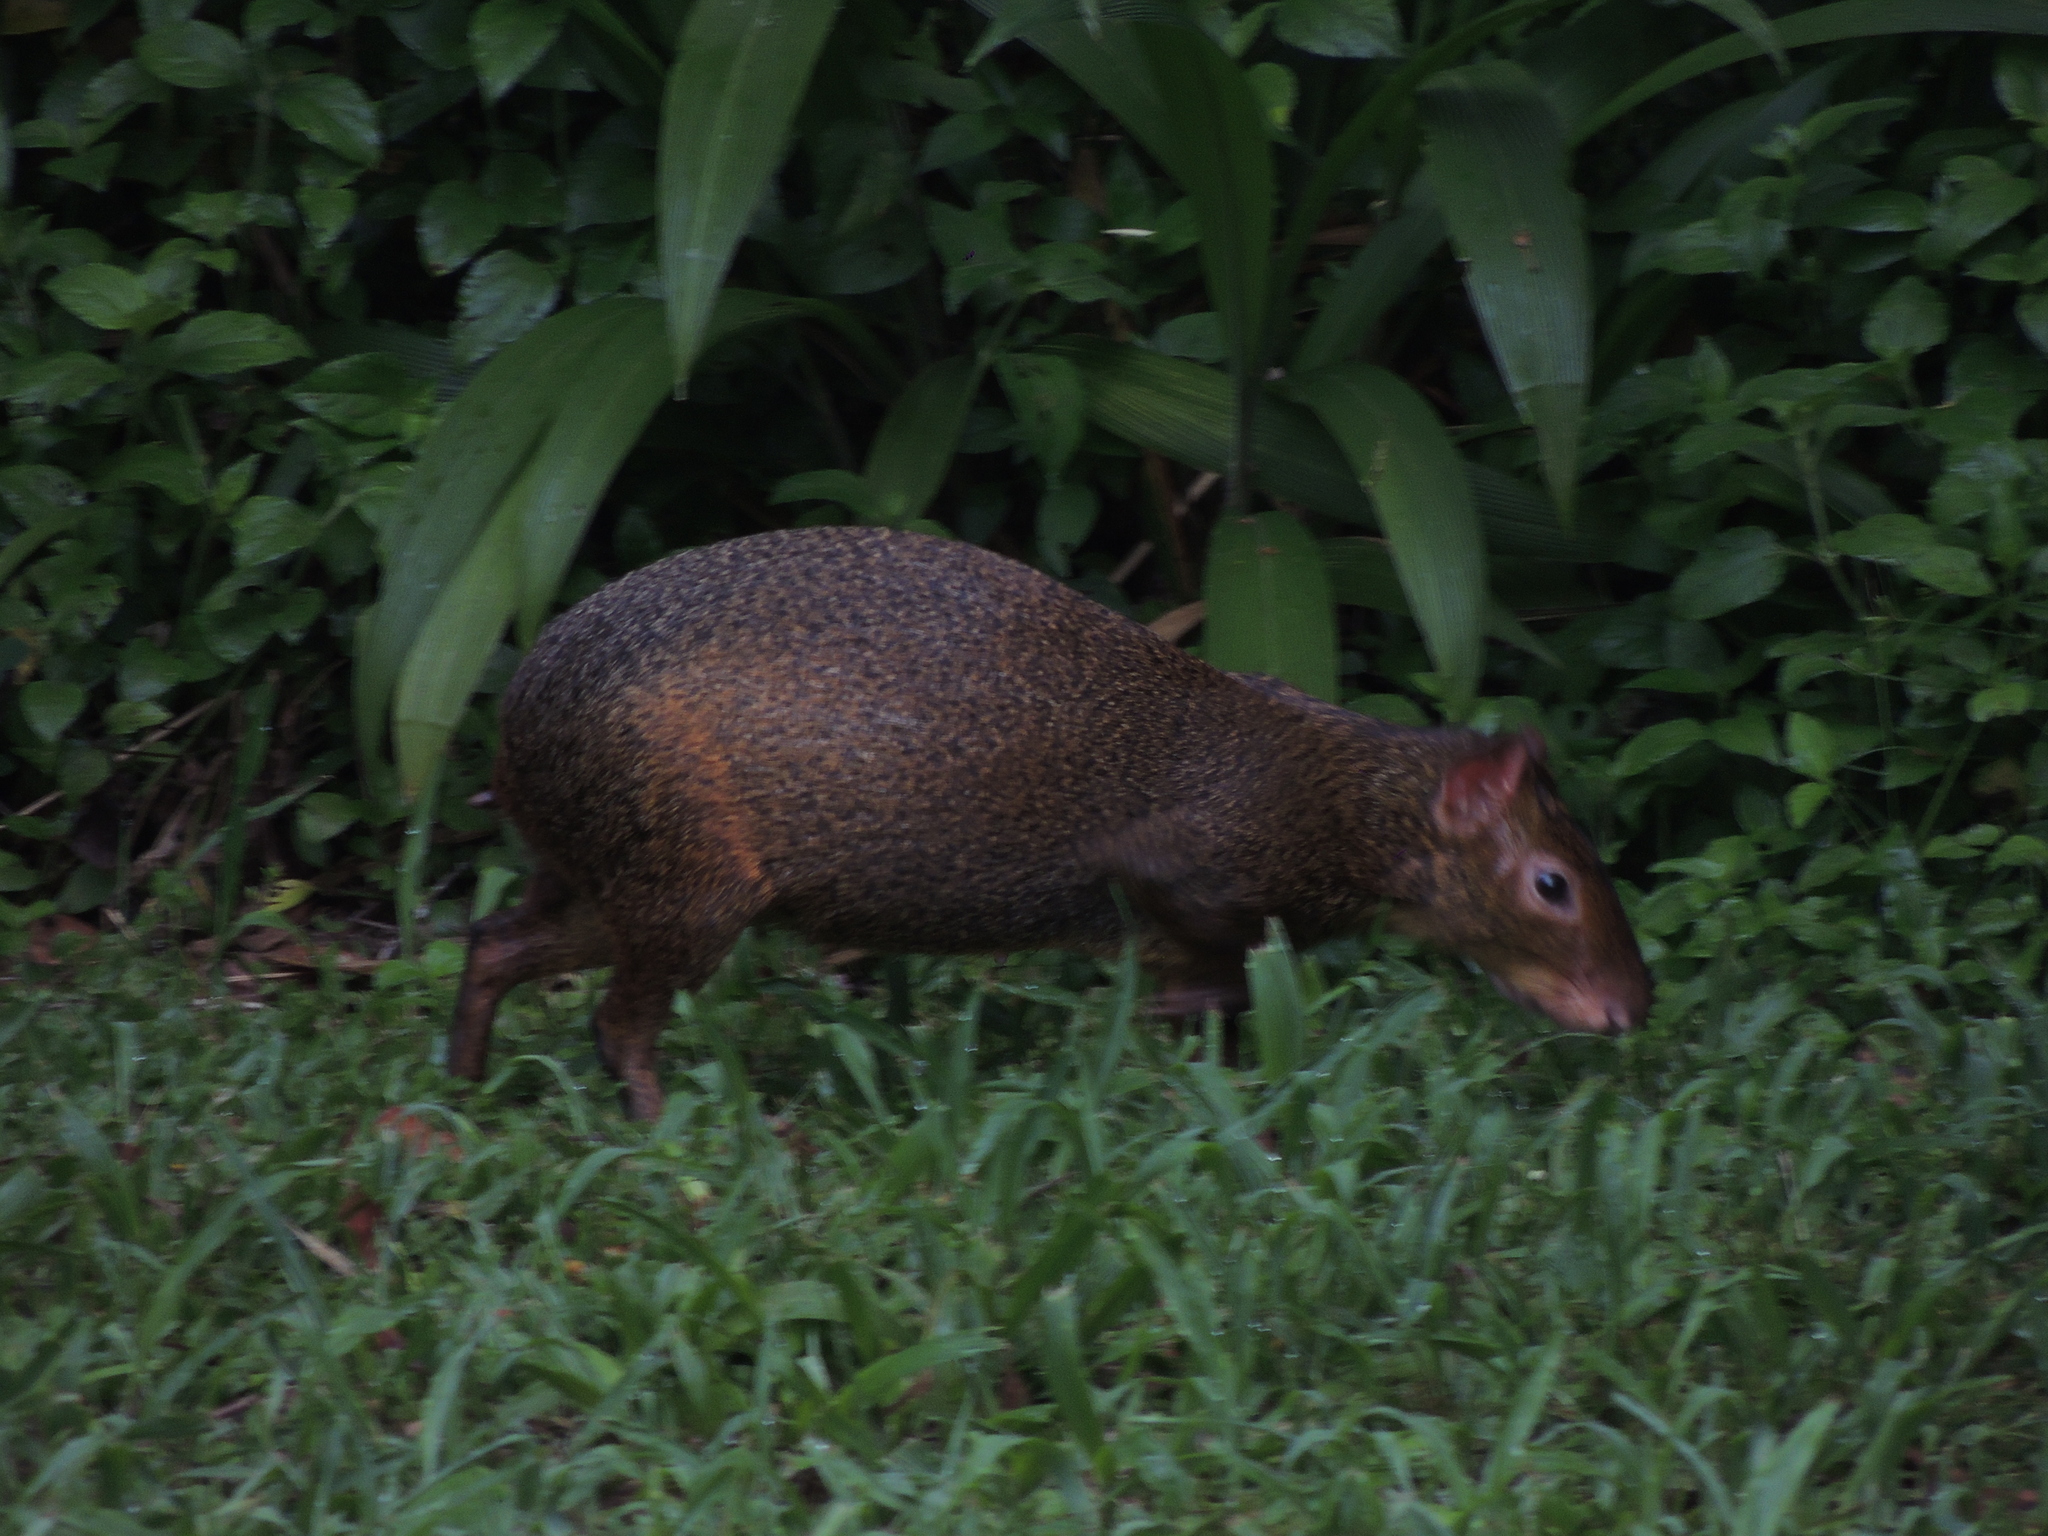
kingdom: Animalia
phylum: Chordata
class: Mammalia
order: Rodentia
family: Dasyproctidae
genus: Dasyprocta
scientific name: Dasyprocta azarae
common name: Azara's agouti
